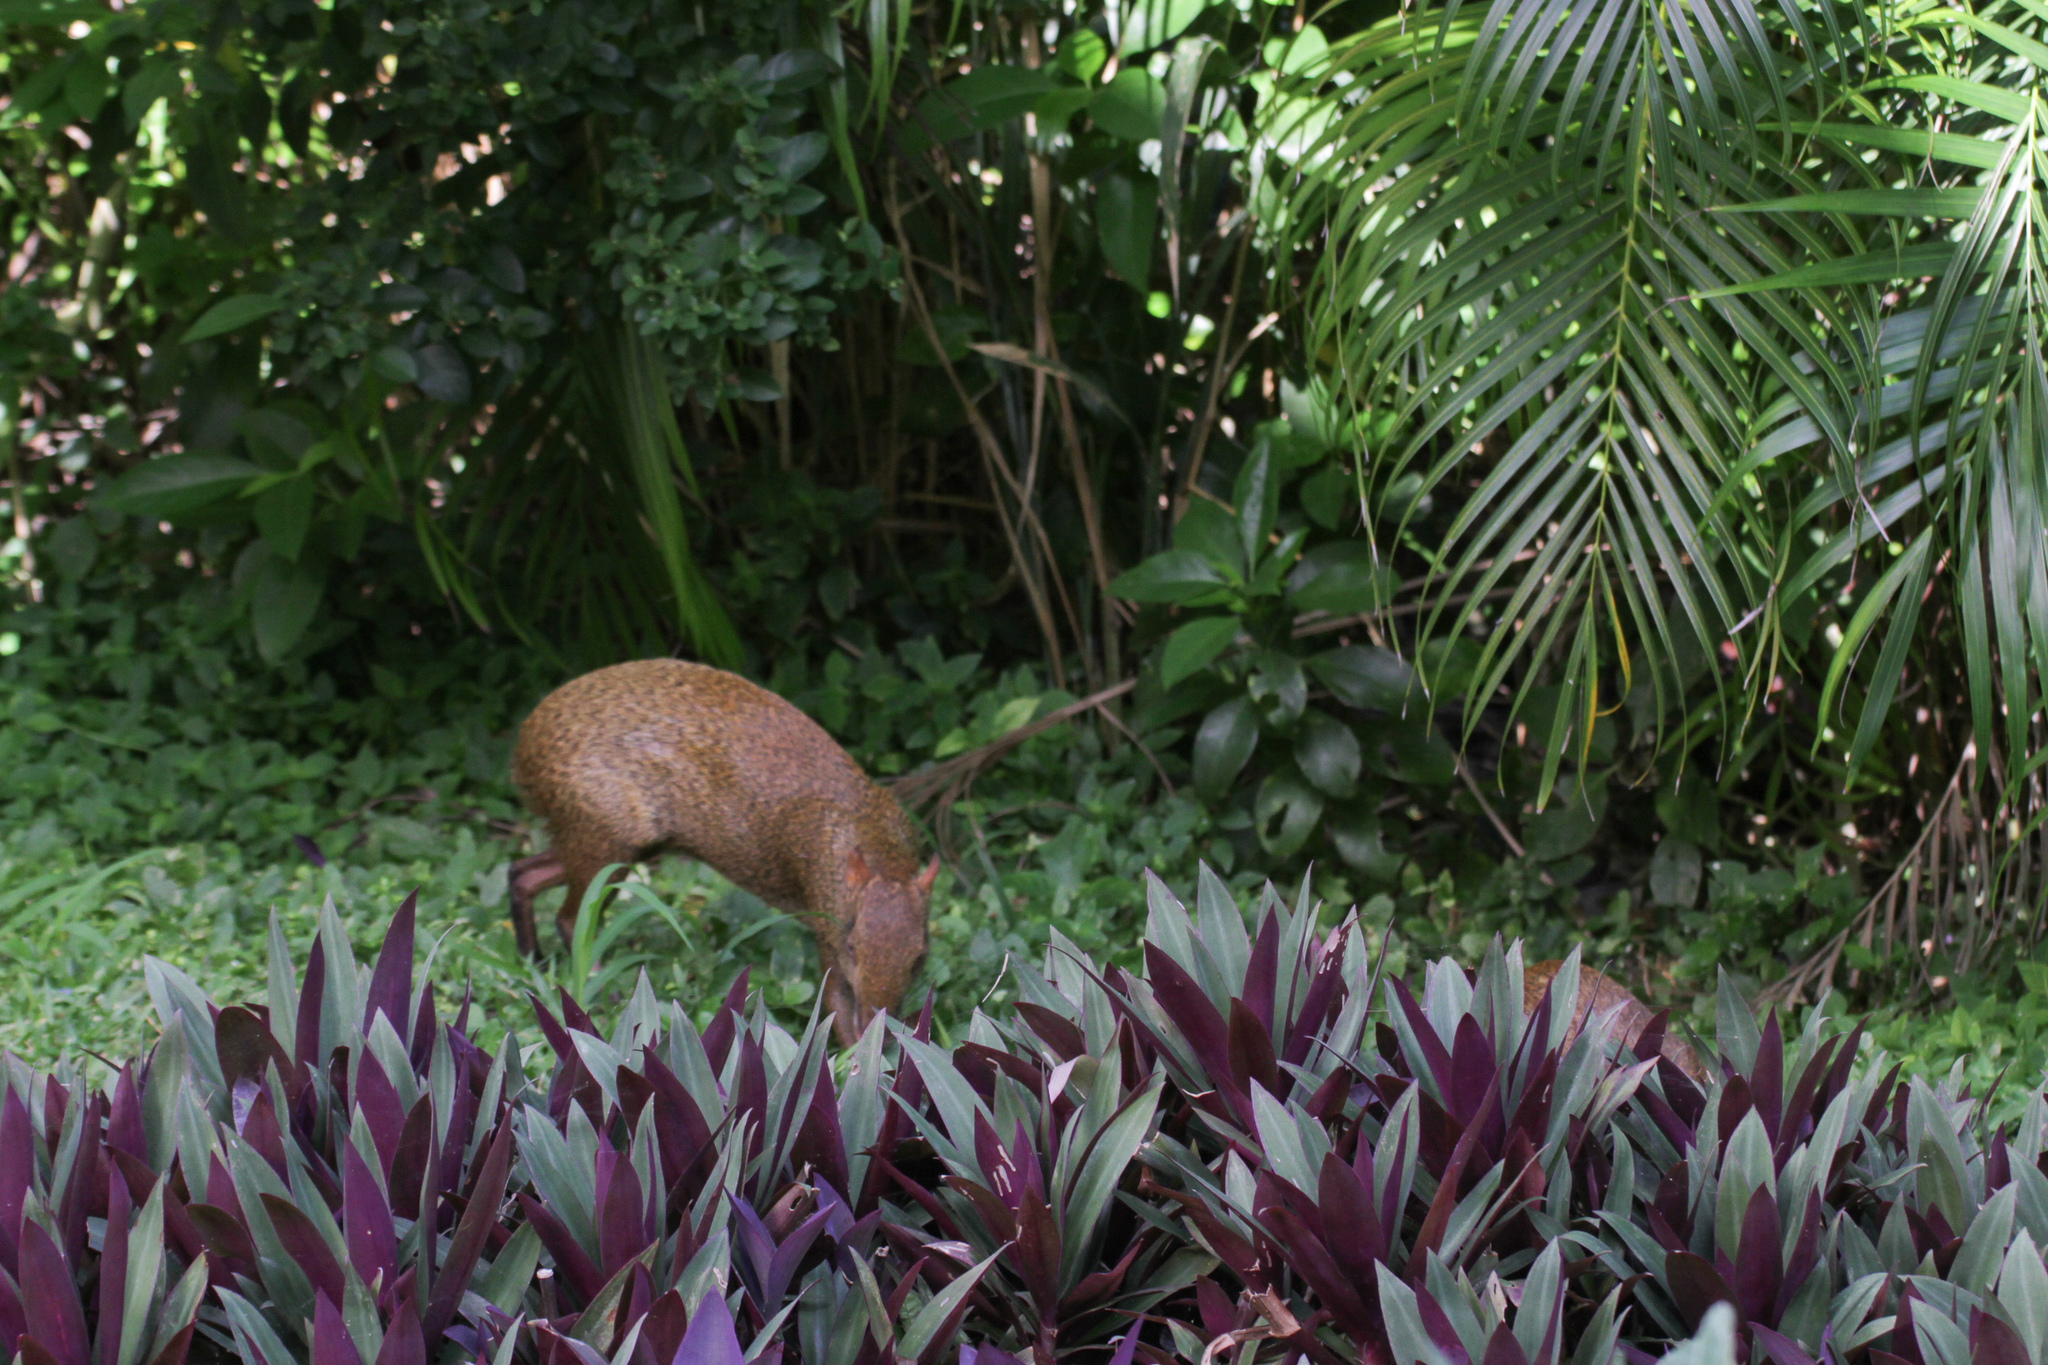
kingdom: Animalia
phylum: Chordata
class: Mammalia
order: Rodentia
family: Dasyproctidae
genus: Dasyprocta
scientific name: Dasyprocta punctata
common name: Central american agouti
